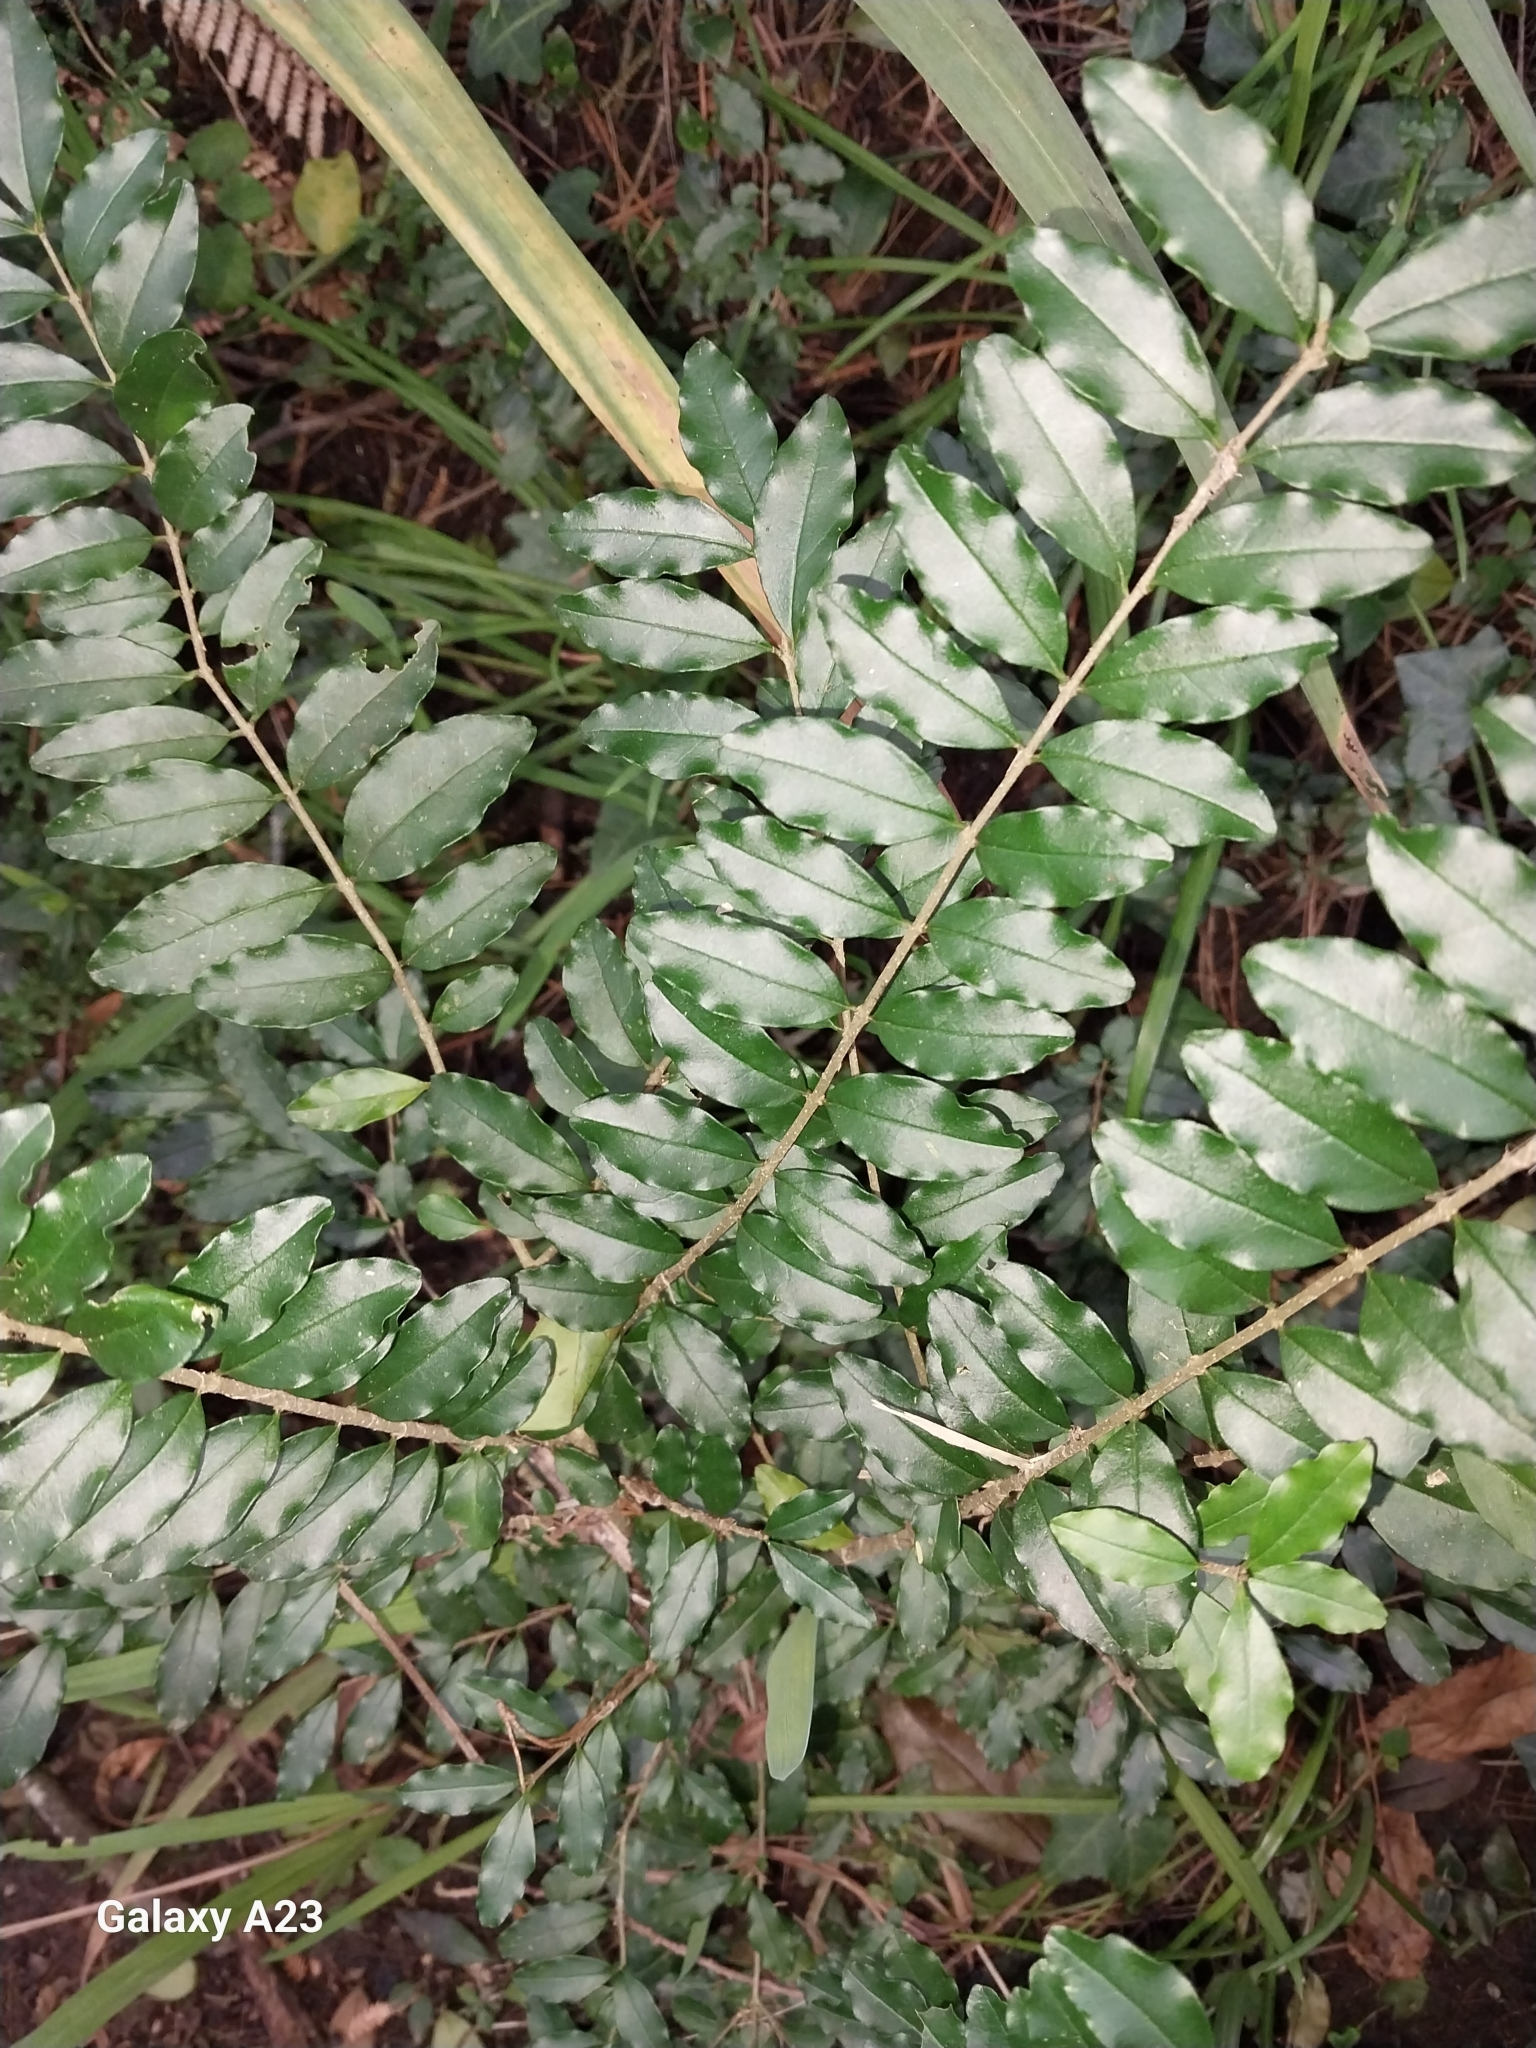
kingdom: Plantae
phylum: Tracheophyta
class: Magnoliopsida
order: Lamiales
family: Oleaceae
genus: Ligustrum
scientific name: Ligustrum sinense
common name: Chinese privet
